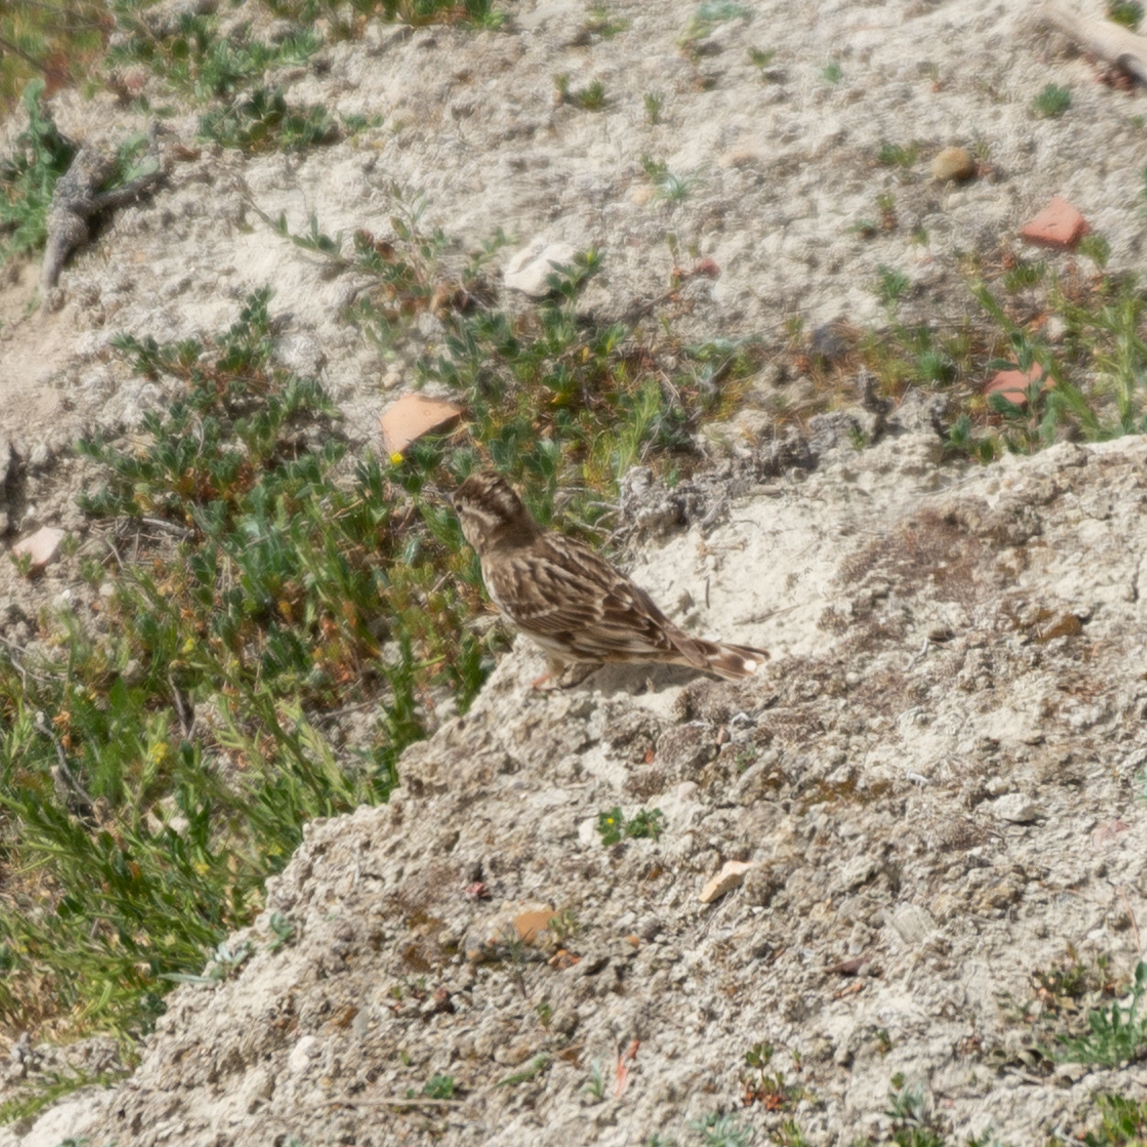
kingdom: Animalia
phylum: Chordata
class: Aves
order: Passeriformes
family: Passeridae
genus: Petronia
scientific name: Petronia petronia
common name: Rock sparrow
